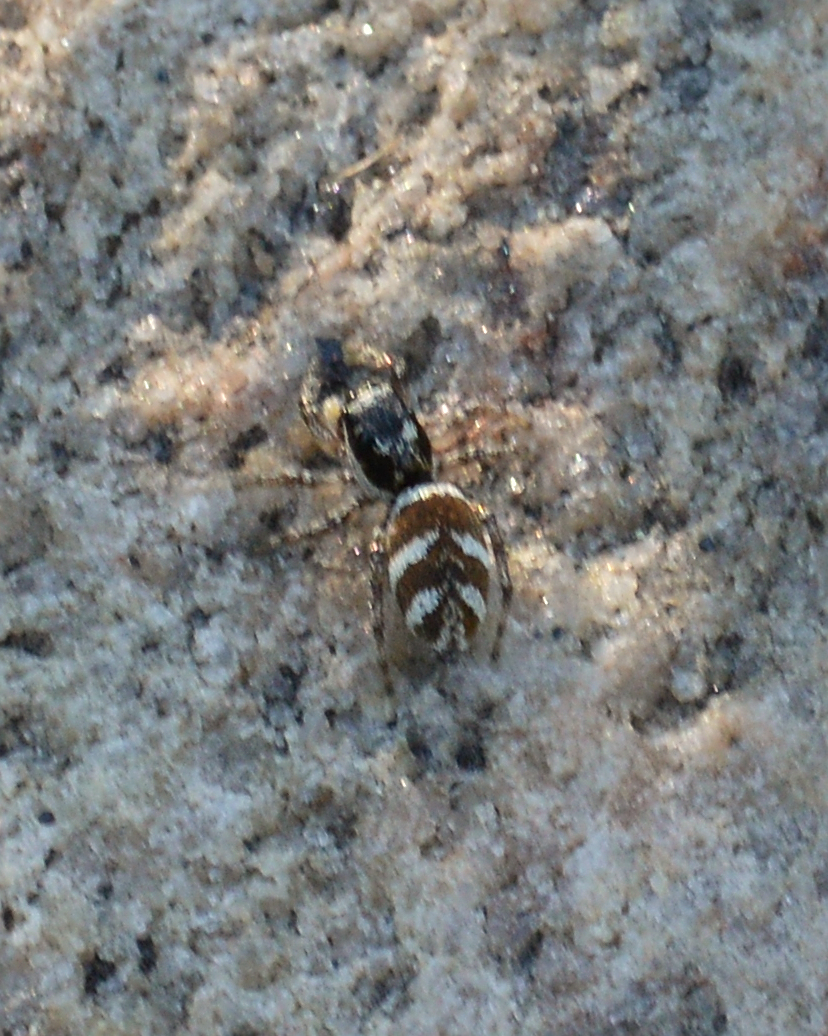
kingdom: Animalia
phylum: Arthropoda
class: Arachnida
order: Araneae
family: Salticidae
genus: Salticus
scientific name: Salticus scenicus
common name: Zebra jumper
